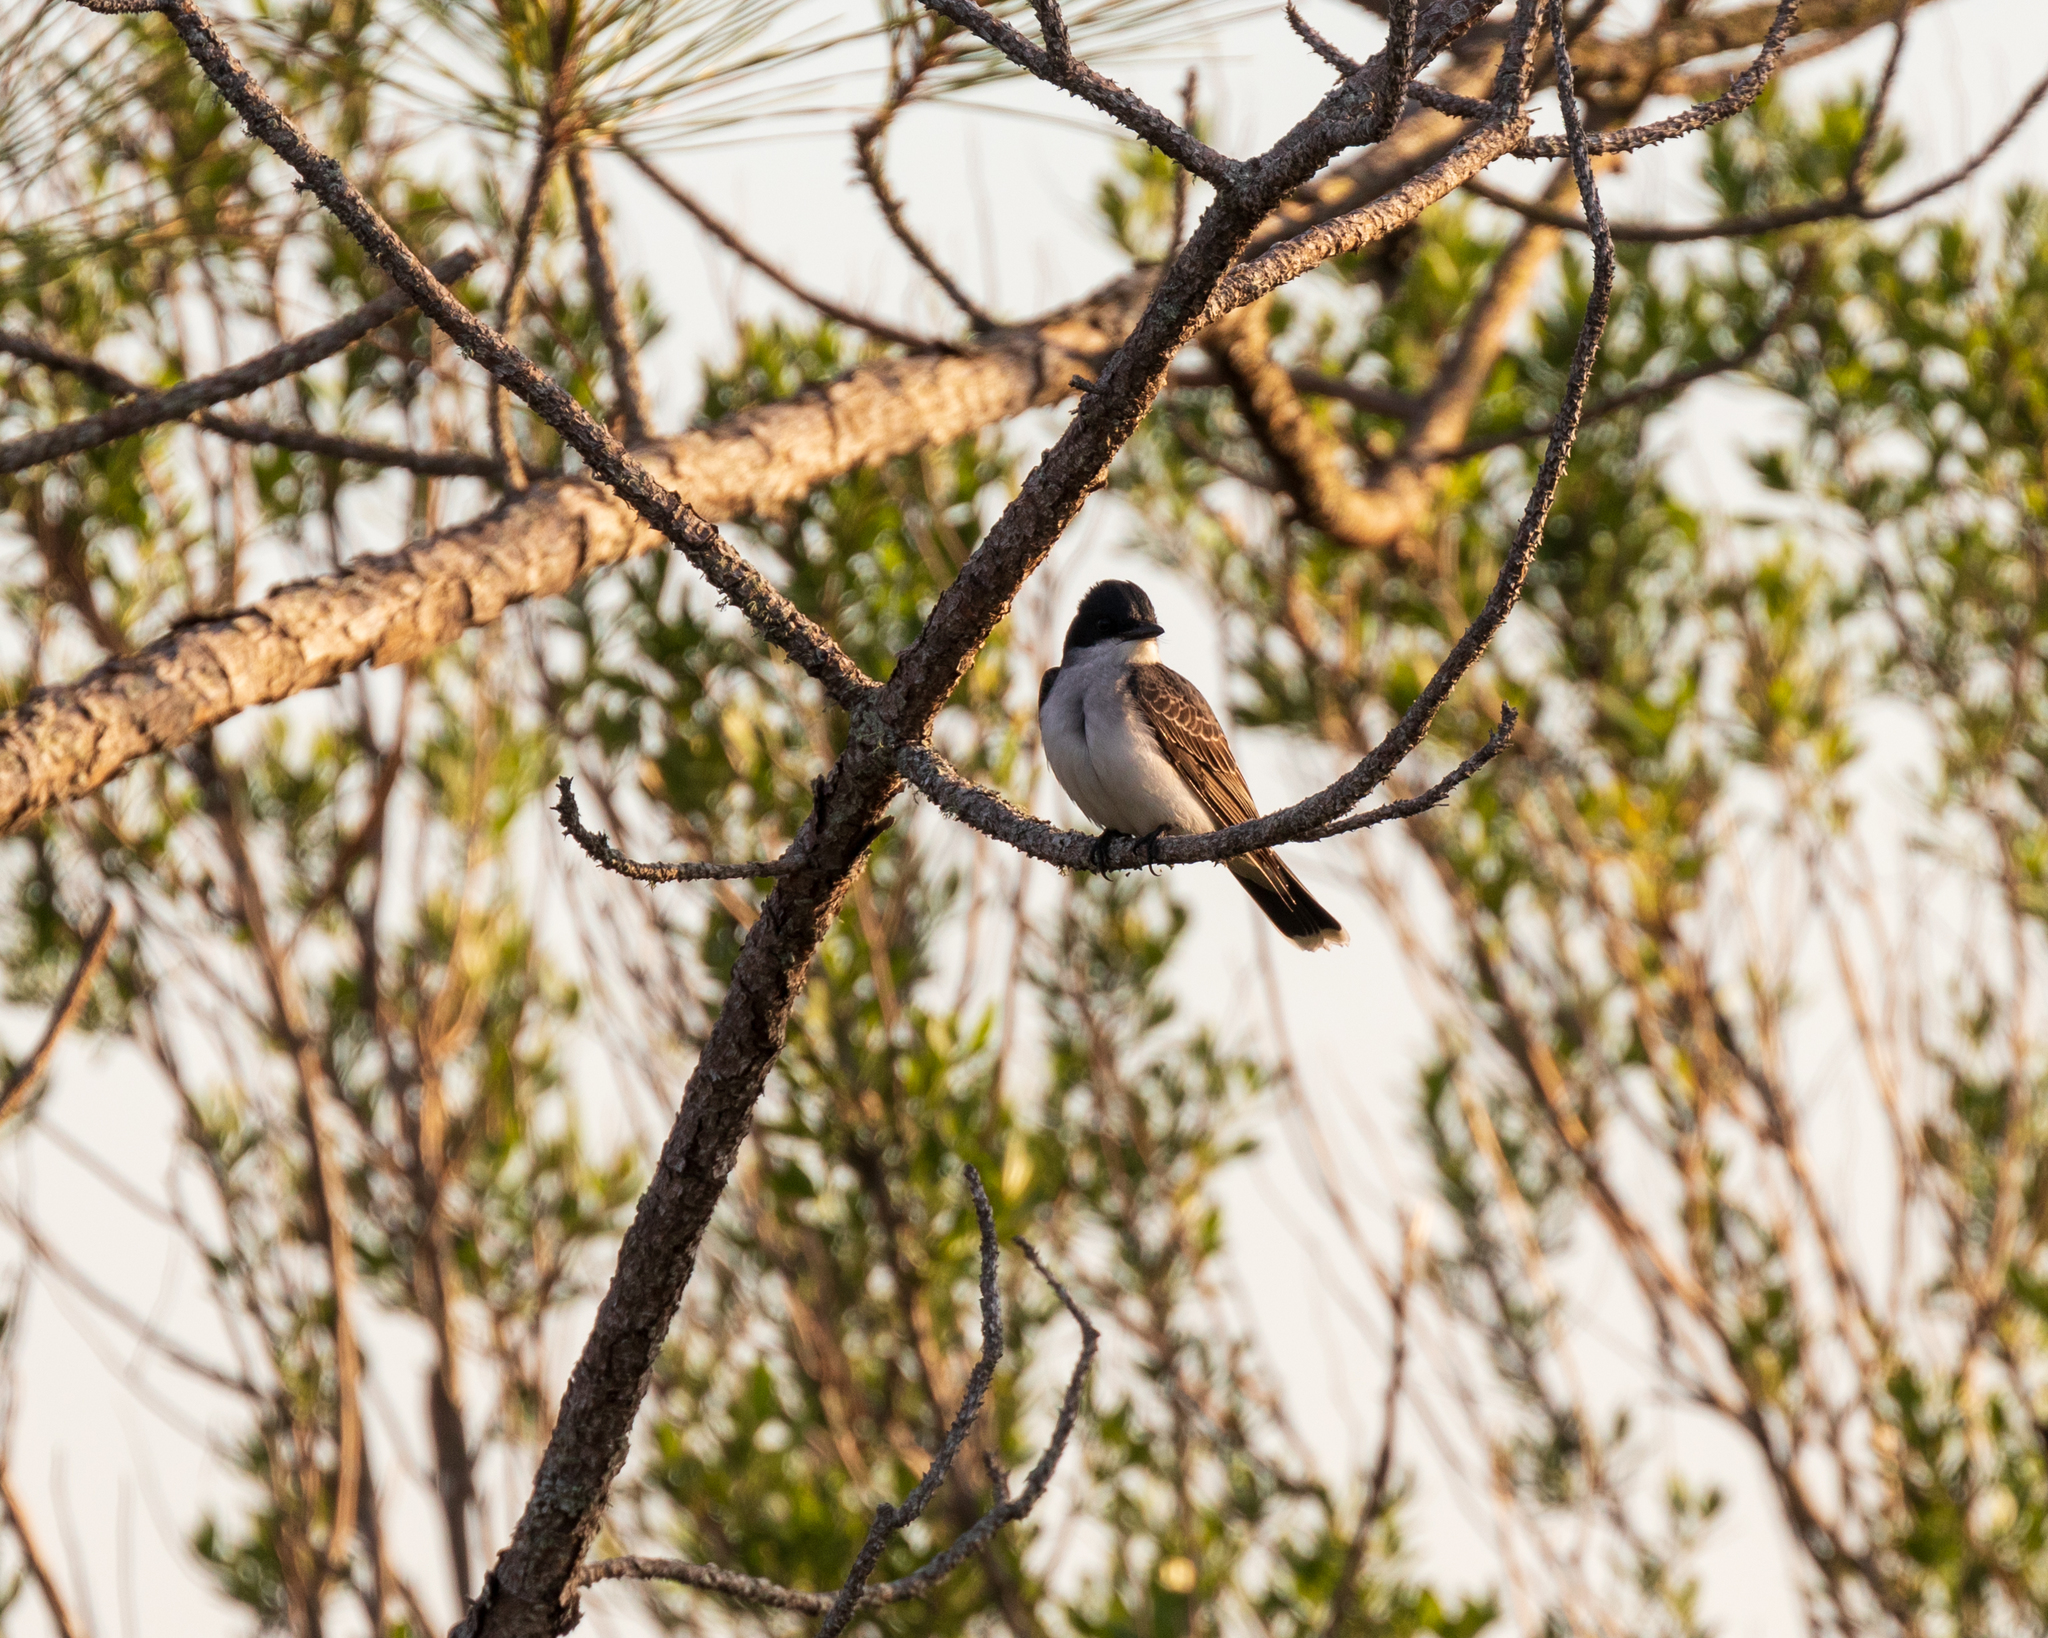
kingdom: Animalia
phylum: Chordata
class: Aves
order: Passeriformes
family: Tyrannidae
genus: Tyrannus
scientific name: Tyrannus tyrannus
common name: Eastern kingbird
